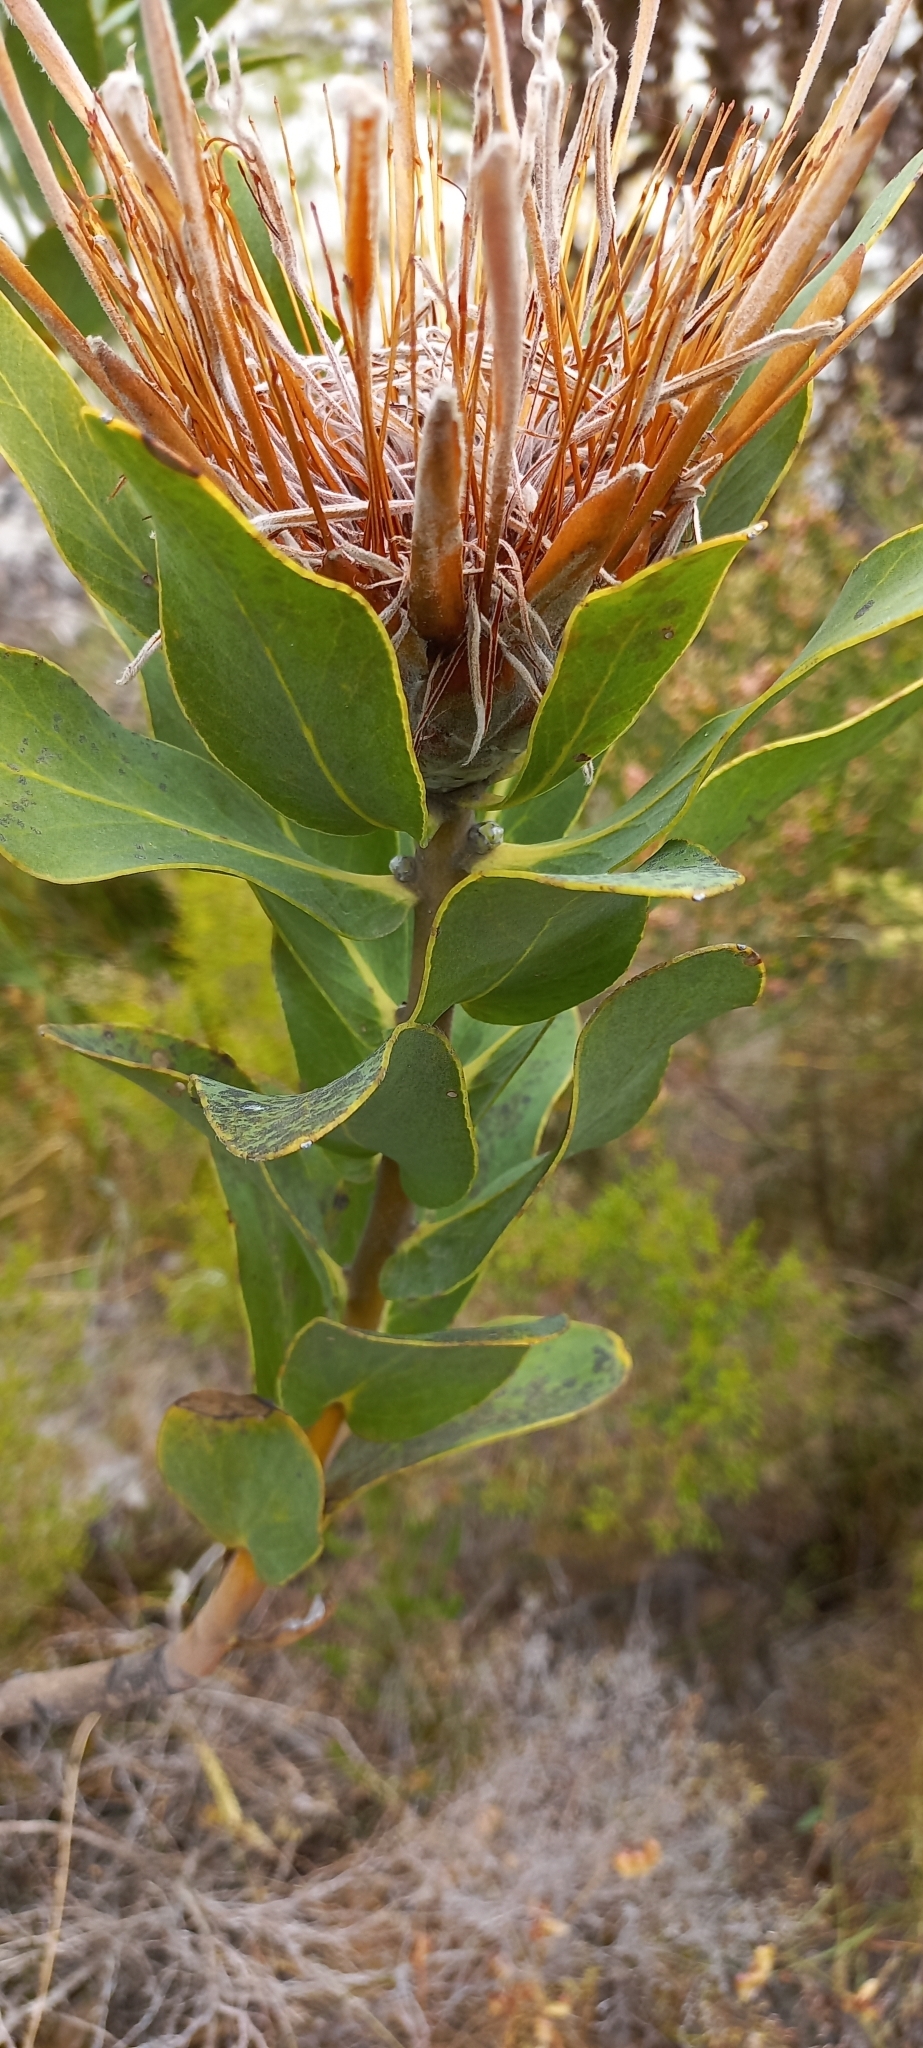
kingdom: Plantae
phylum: Tracheophyta
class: Magnoliopsida
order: Proteales
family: Proteaceae
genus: Protea
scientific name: Protea compacta
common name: Bot river protea
